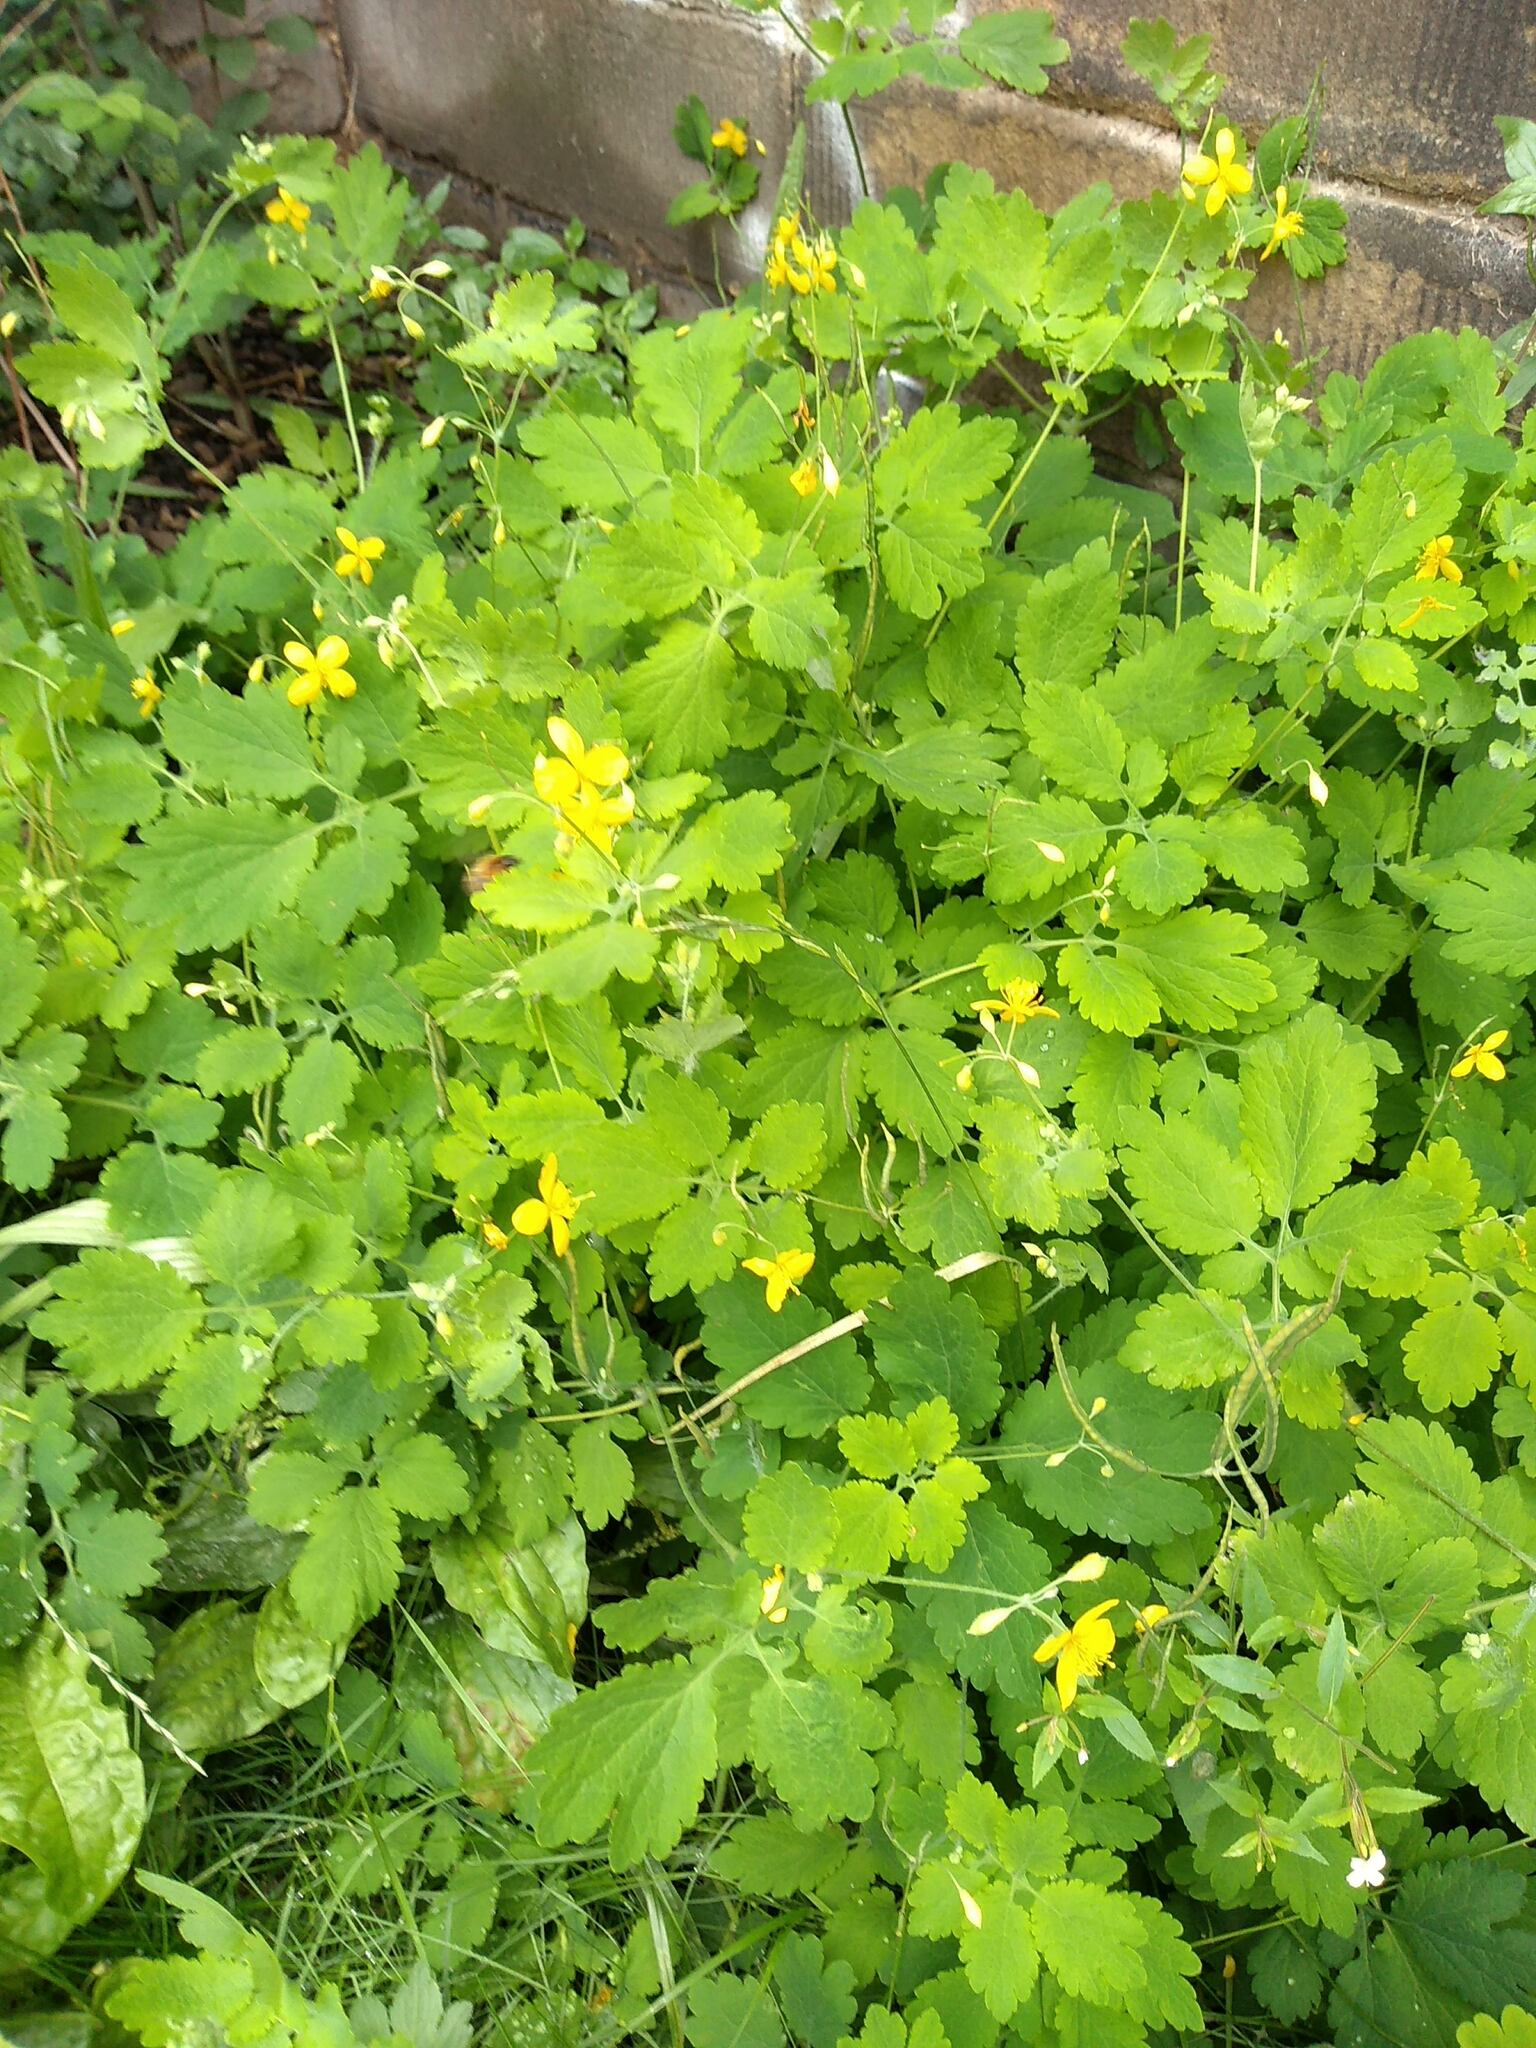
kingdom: Plantae
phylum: Tracheophyta
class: Magnoliopsida
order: Ranunculales
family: Papaveraceae
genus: Chelidonium
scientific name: Chelidonium majus
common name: Greater celandine
